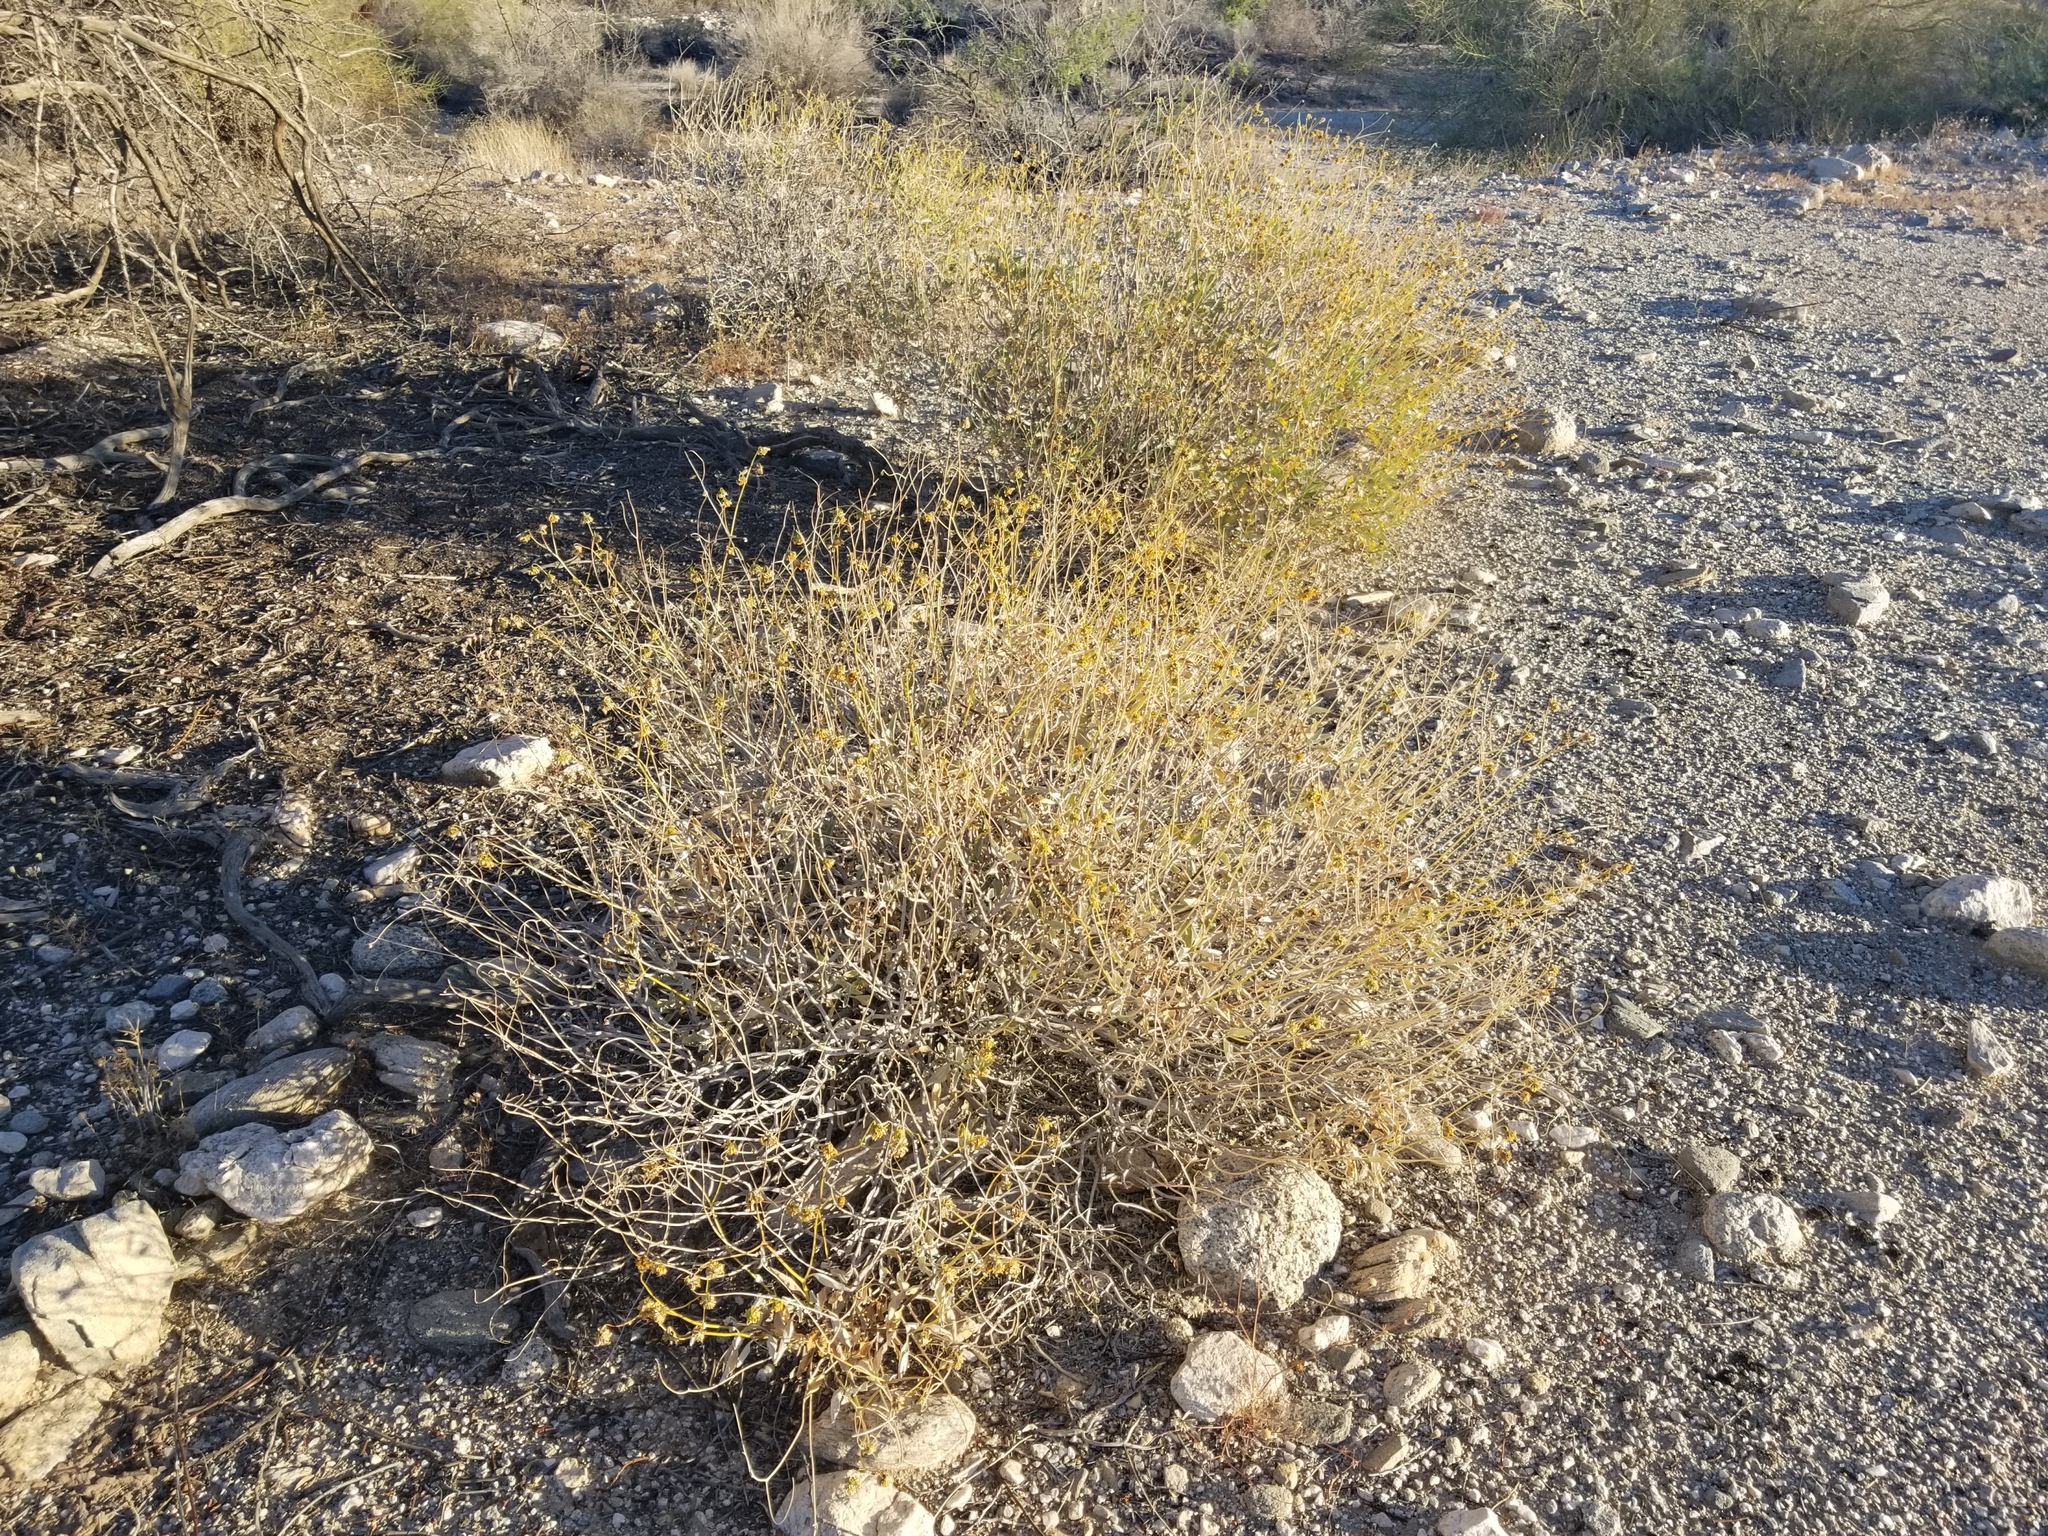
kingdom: Plantae
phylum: Tracheophyta
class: Magnoliopsida
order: Asterales
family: Asteraceae
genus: Encelia
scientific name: Encelia farinosa
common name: Brittlebush
